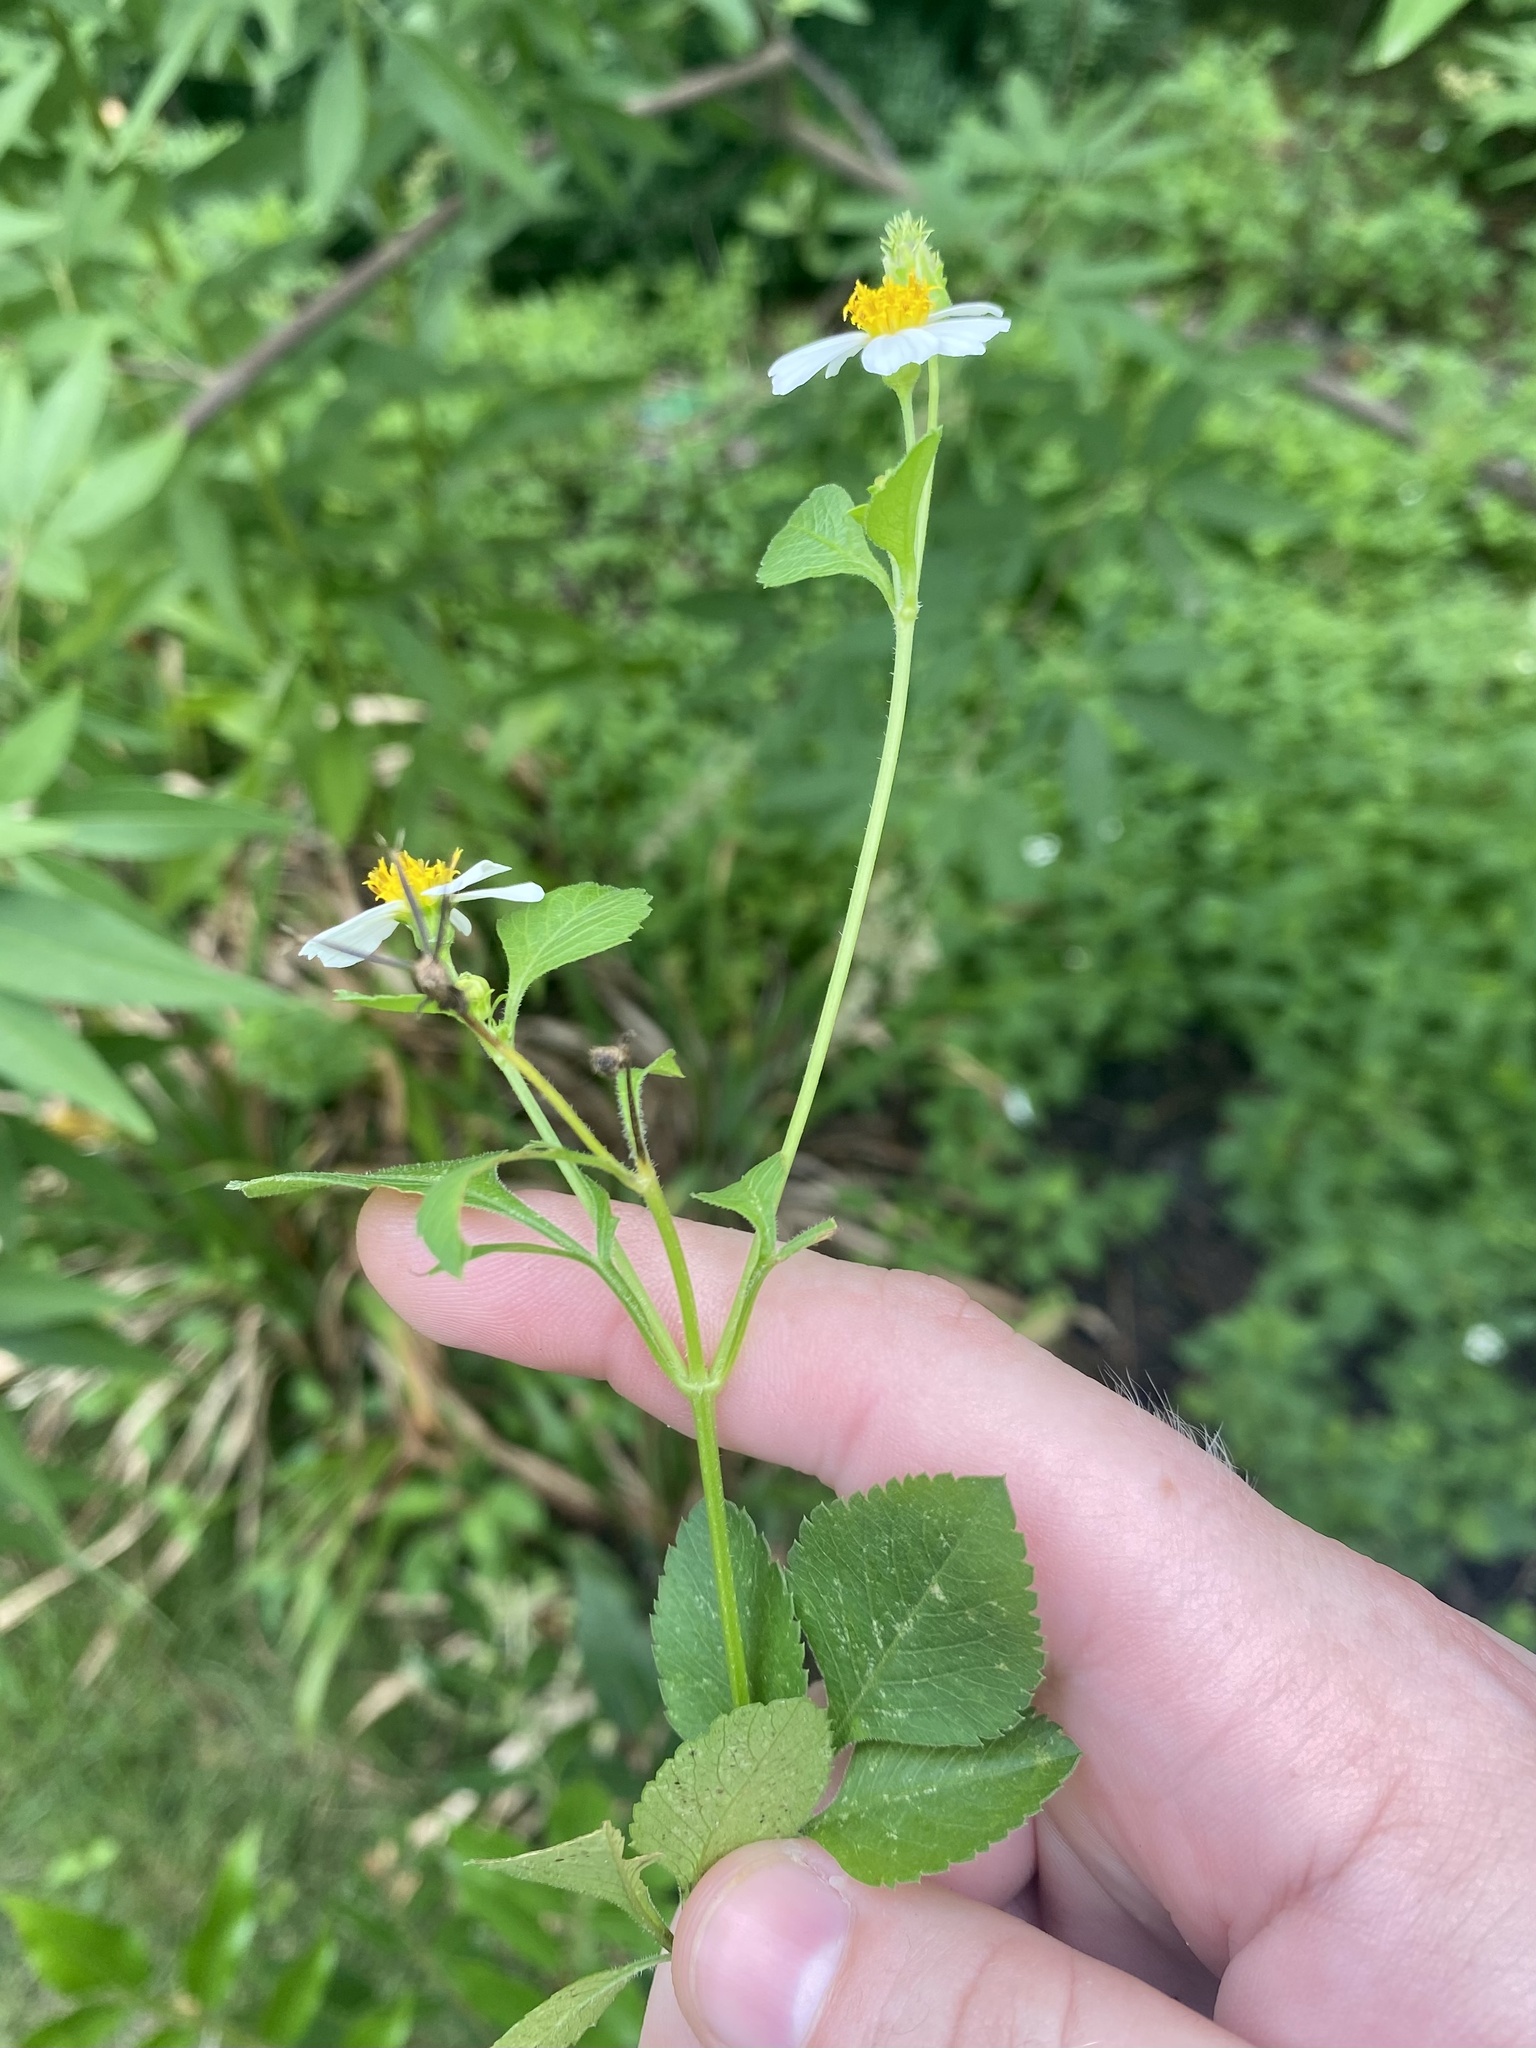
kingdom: Plantae
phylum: Tracheophyta
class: Magnoliopsida
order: Asterales
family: Asteraceae
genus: Bidens
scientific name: Bidens alba
